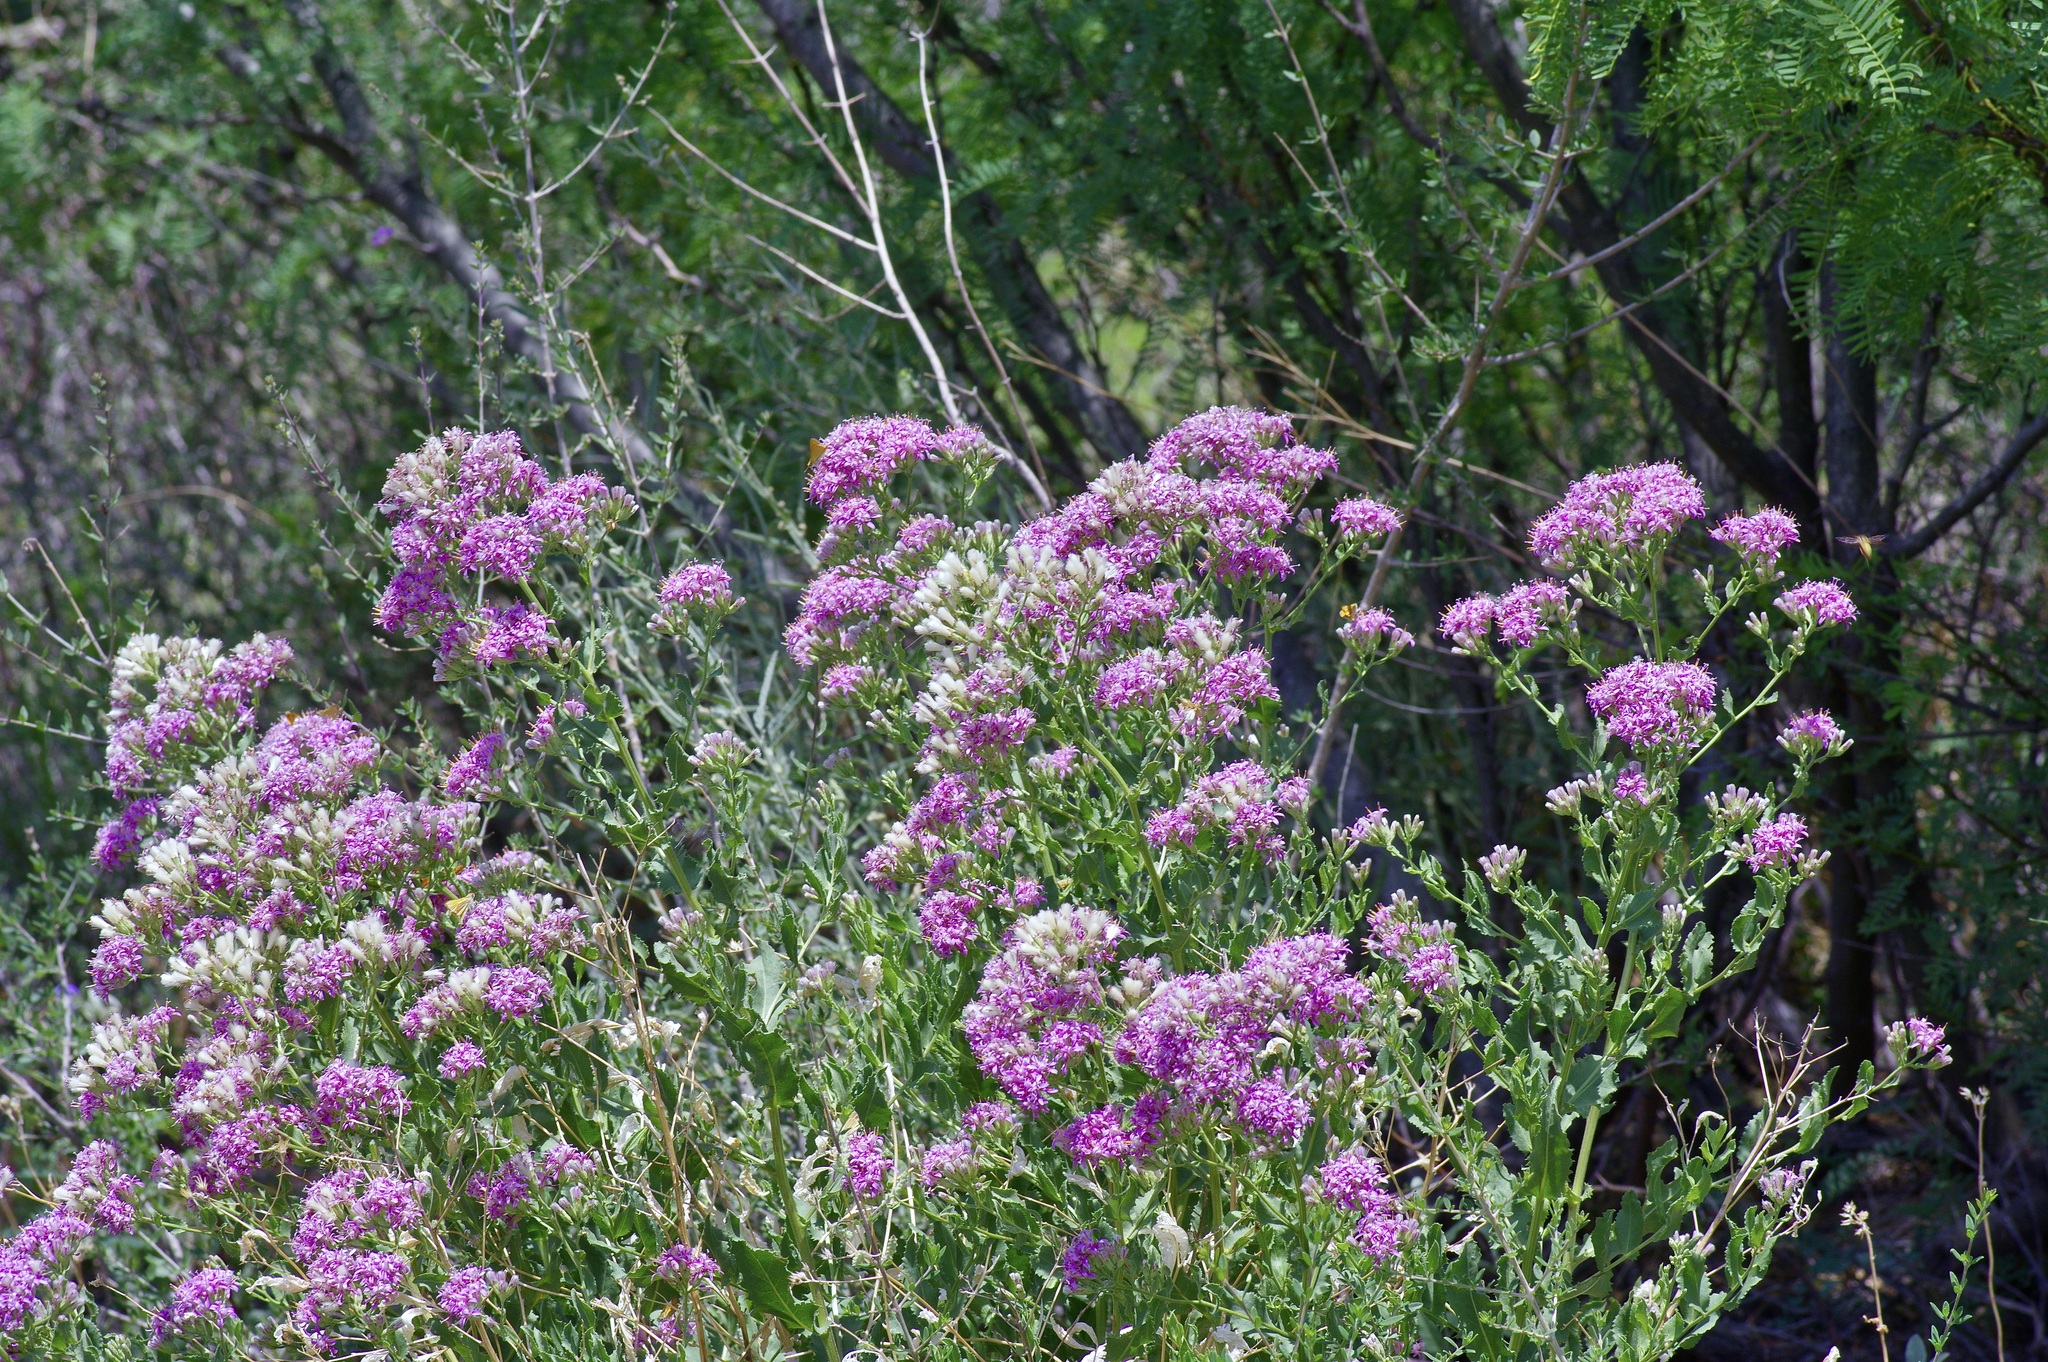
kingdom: Plantae
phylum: Tracheophyta
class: Magnoliopsida
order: Asterales
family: Asteraceae
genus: Acourtia
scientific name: Acourtia wrightii
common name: Brownfoot
